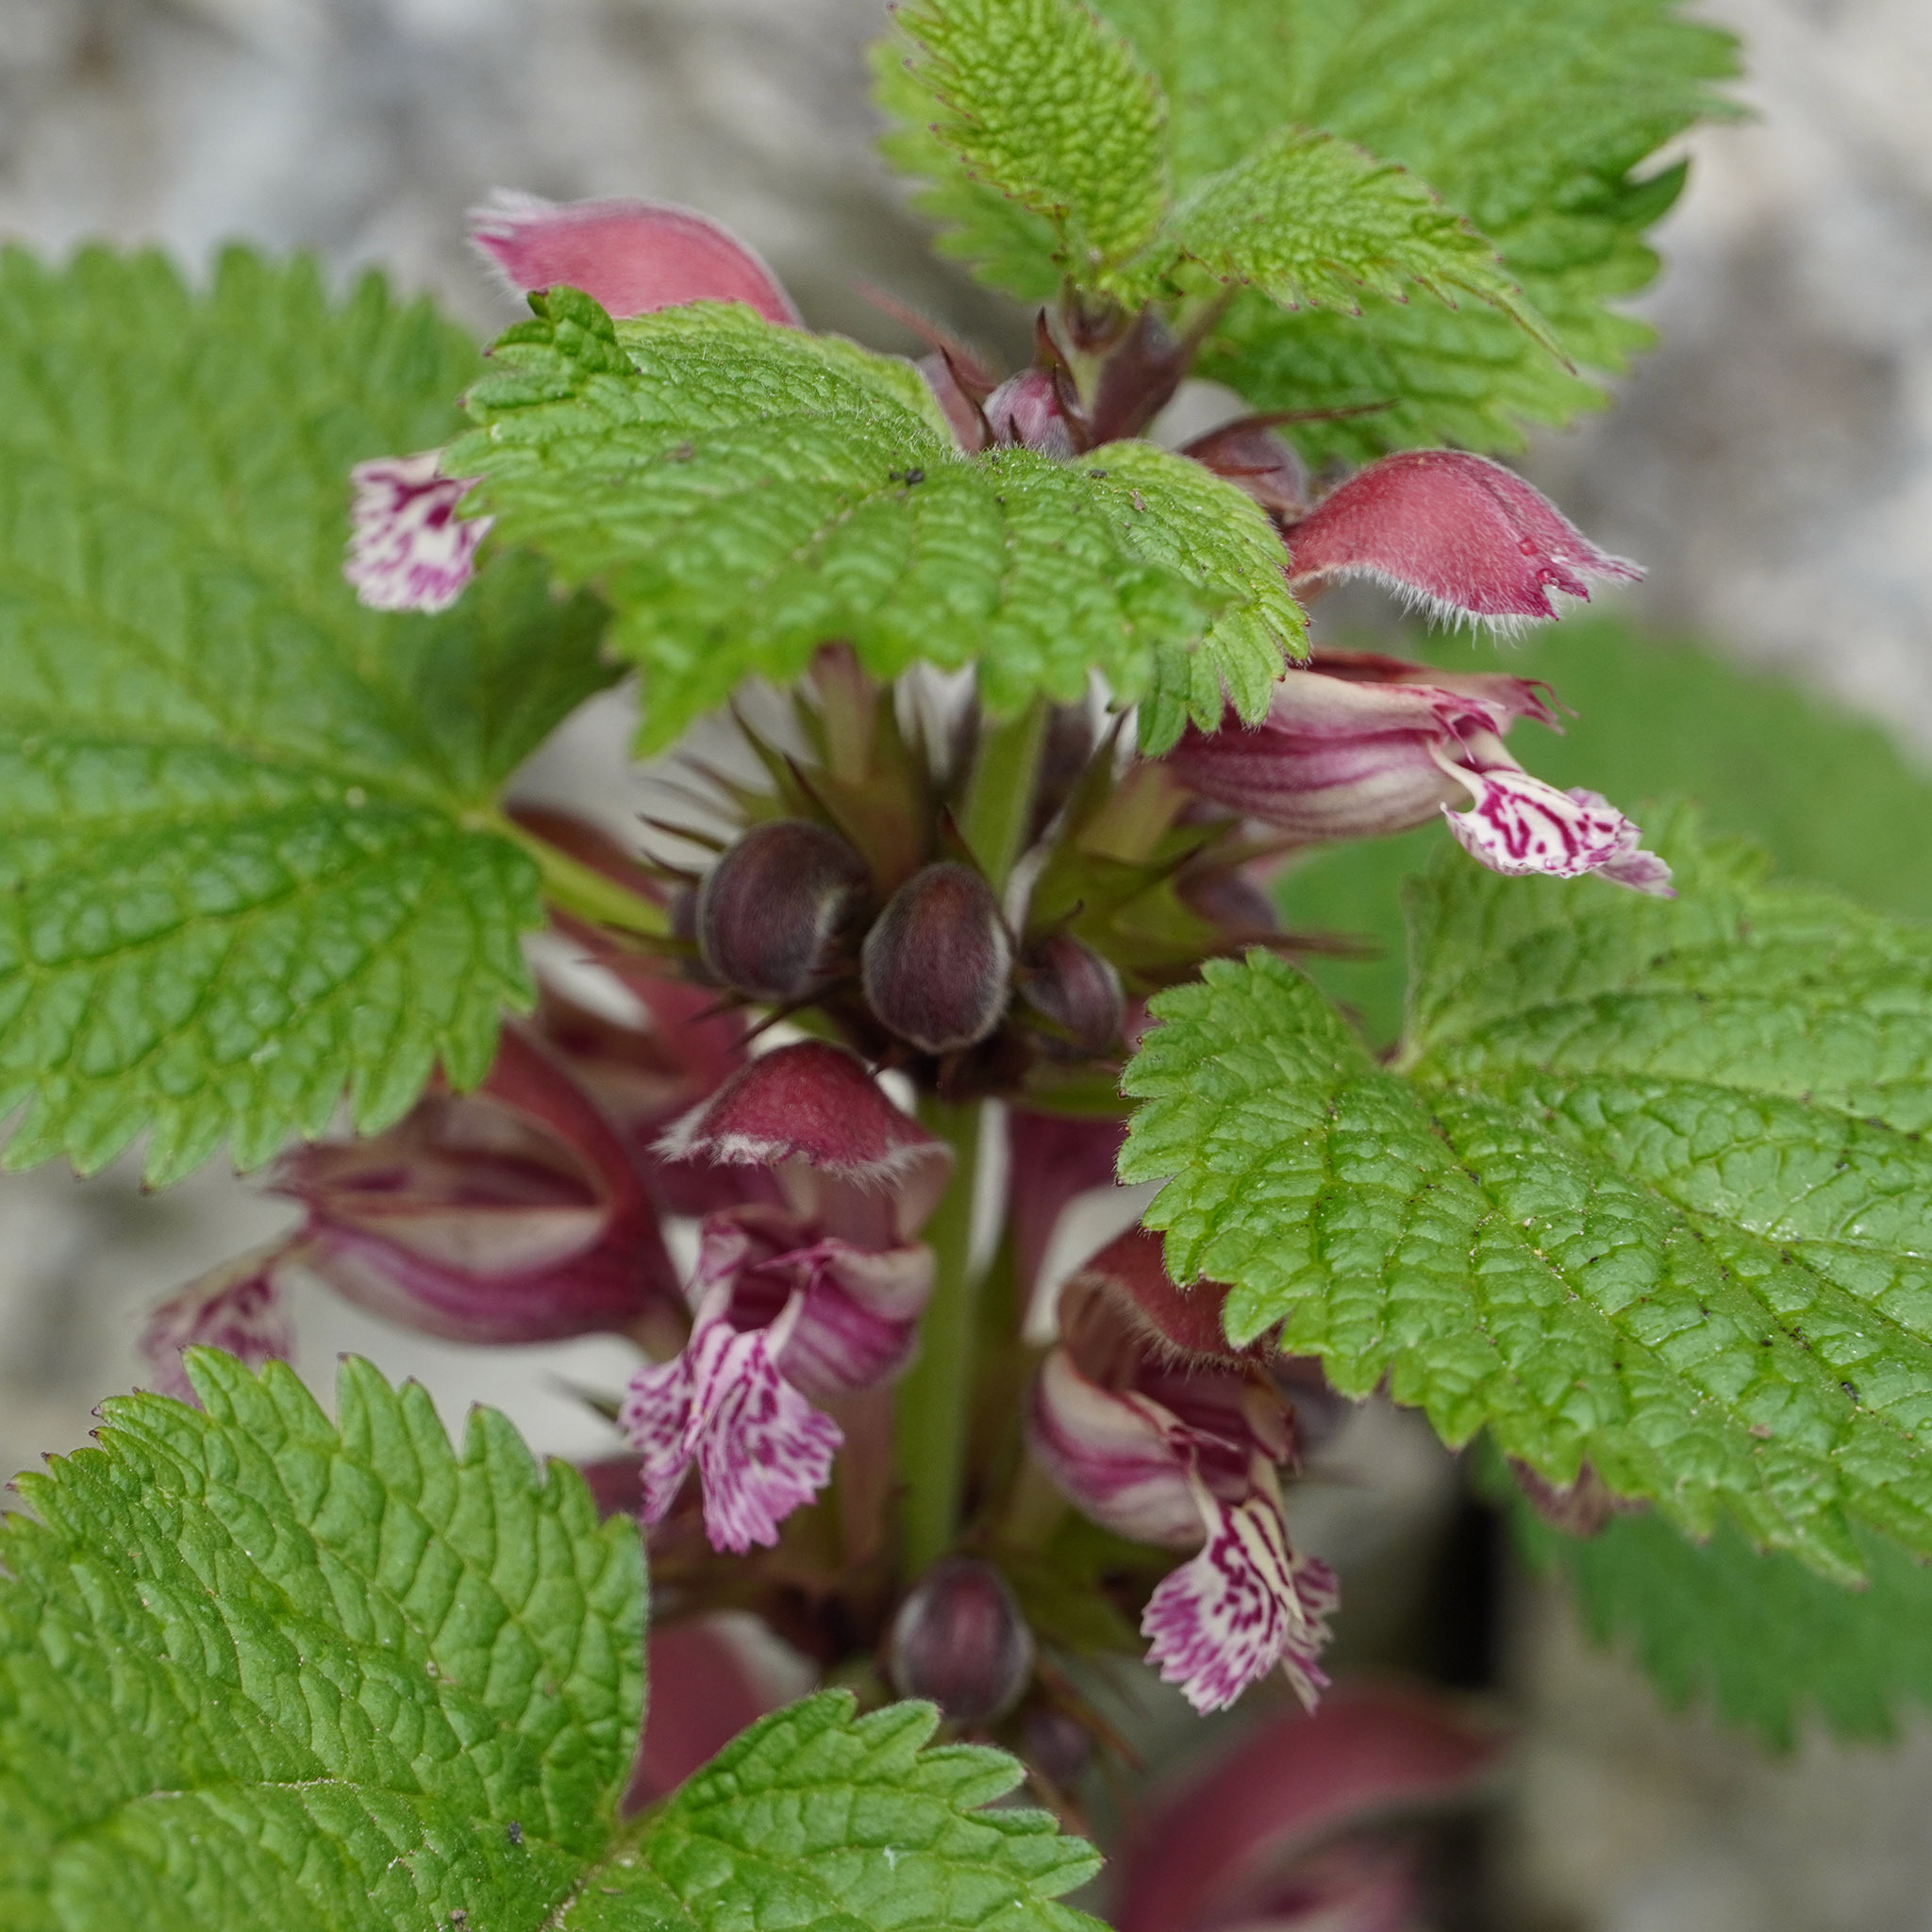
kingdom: Plantae
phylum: Tracheophyta
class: Magnoliopsida
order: Lamiales
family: Lamiaceae
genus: Lamium
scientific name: Lamium orvala
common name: Balm-leaved archangel
